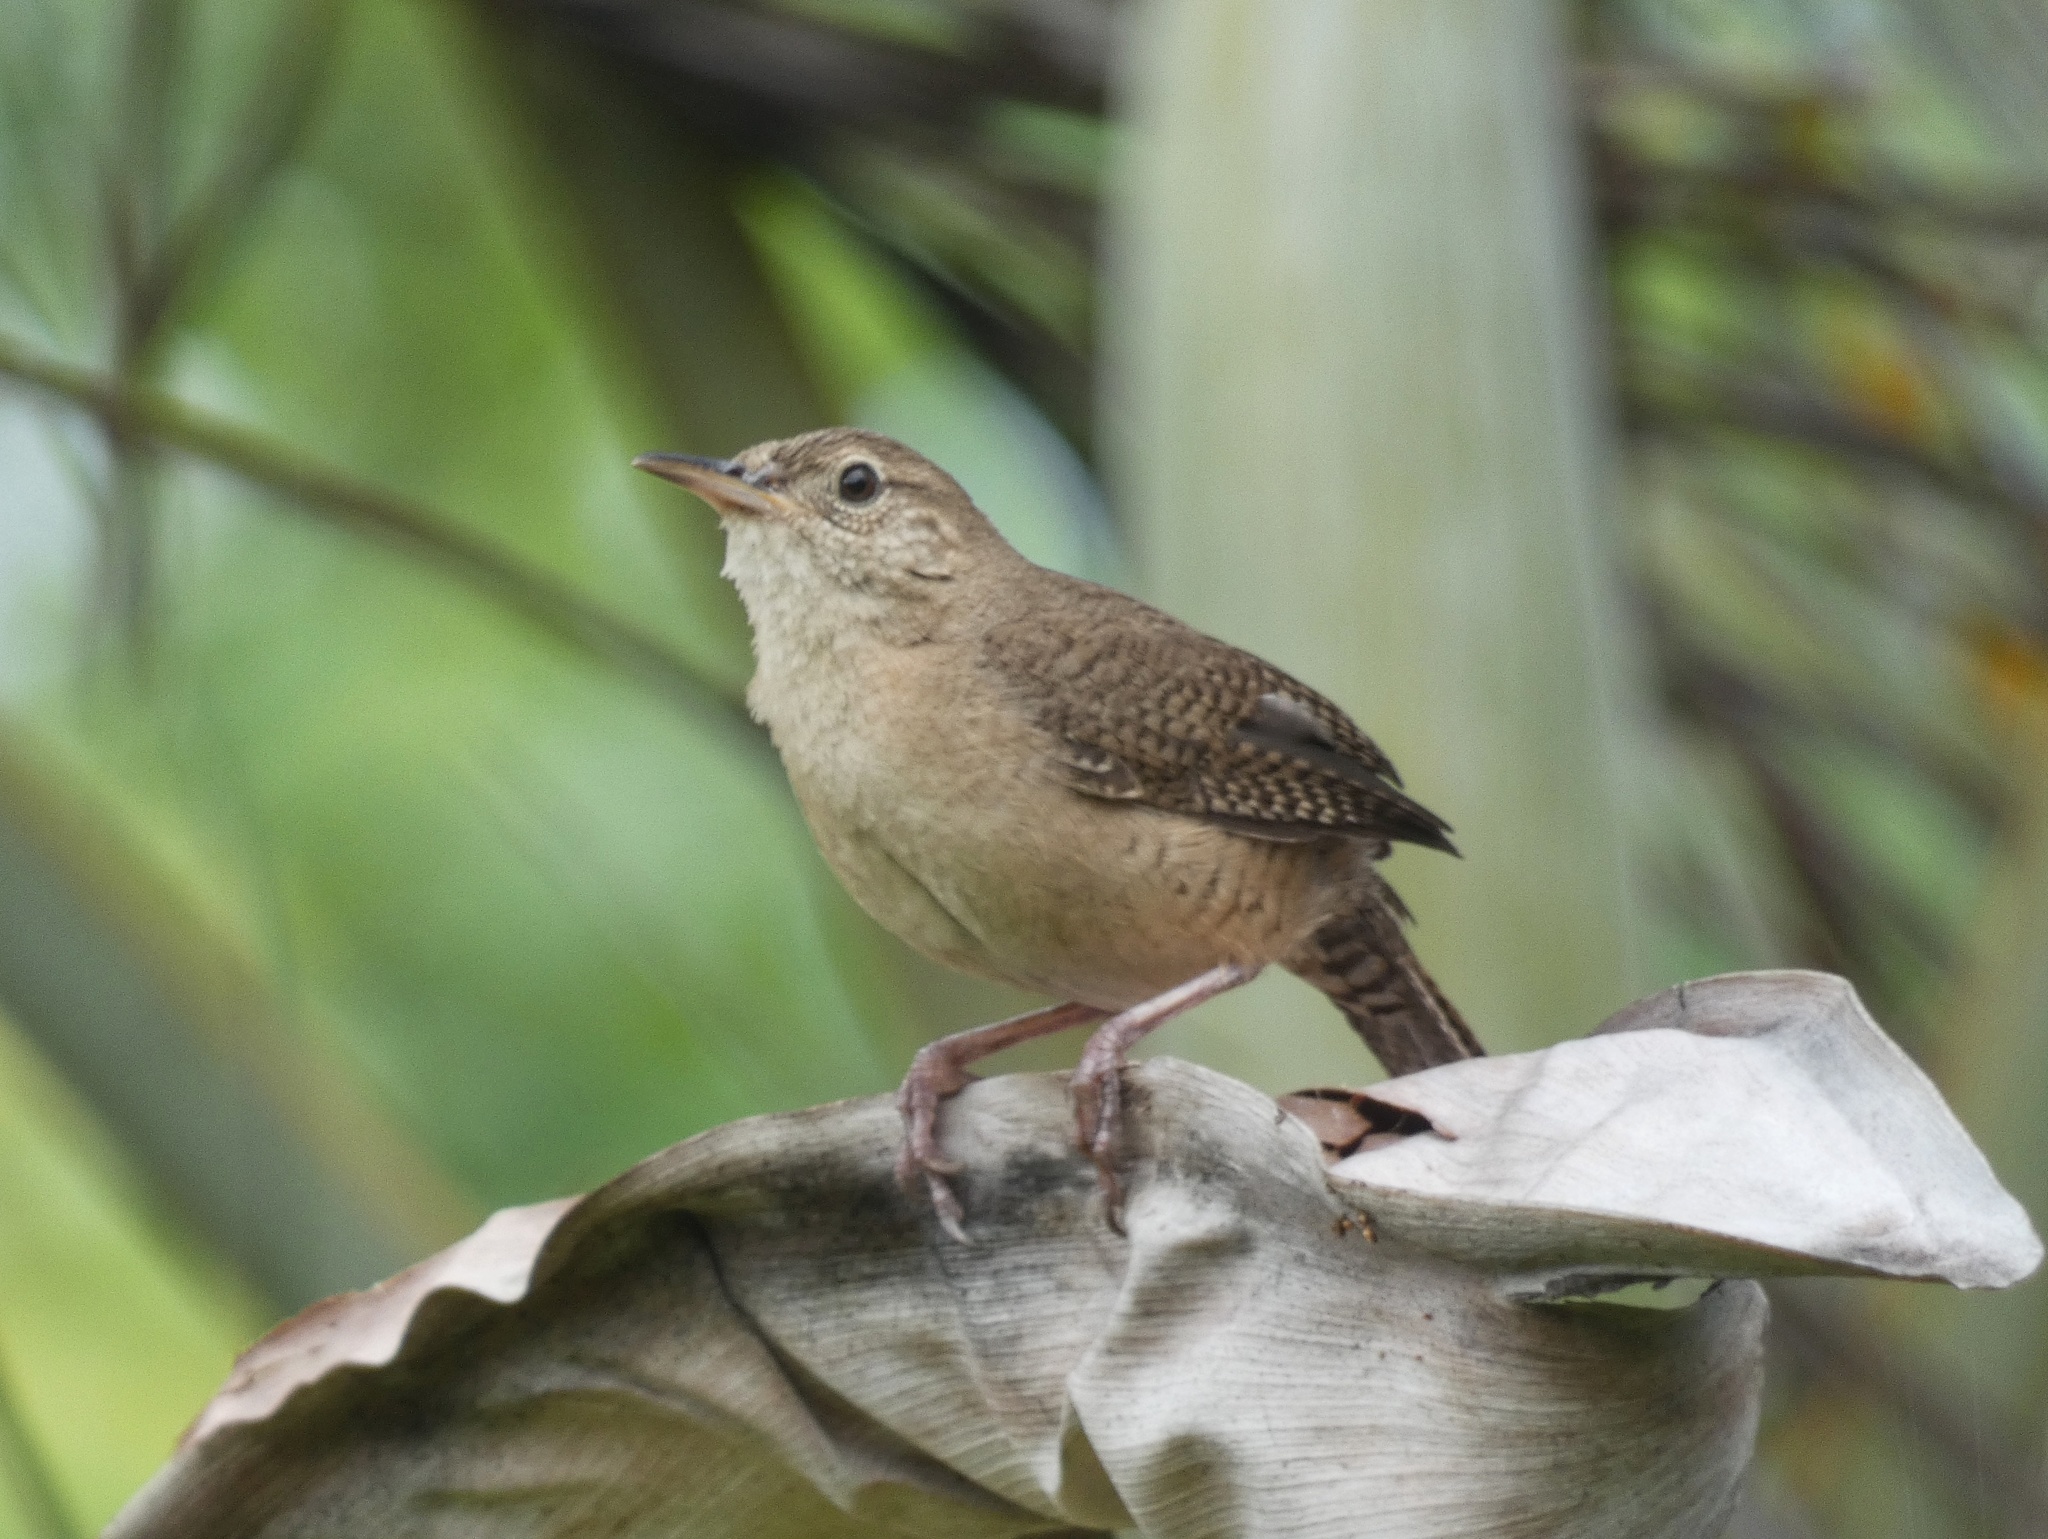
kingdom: Animalia
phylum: Chordata
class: Aves
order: Passeriformes
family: Troglodytidae
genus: Troglodytes
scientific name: Troglodytes aedon
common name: House wren
